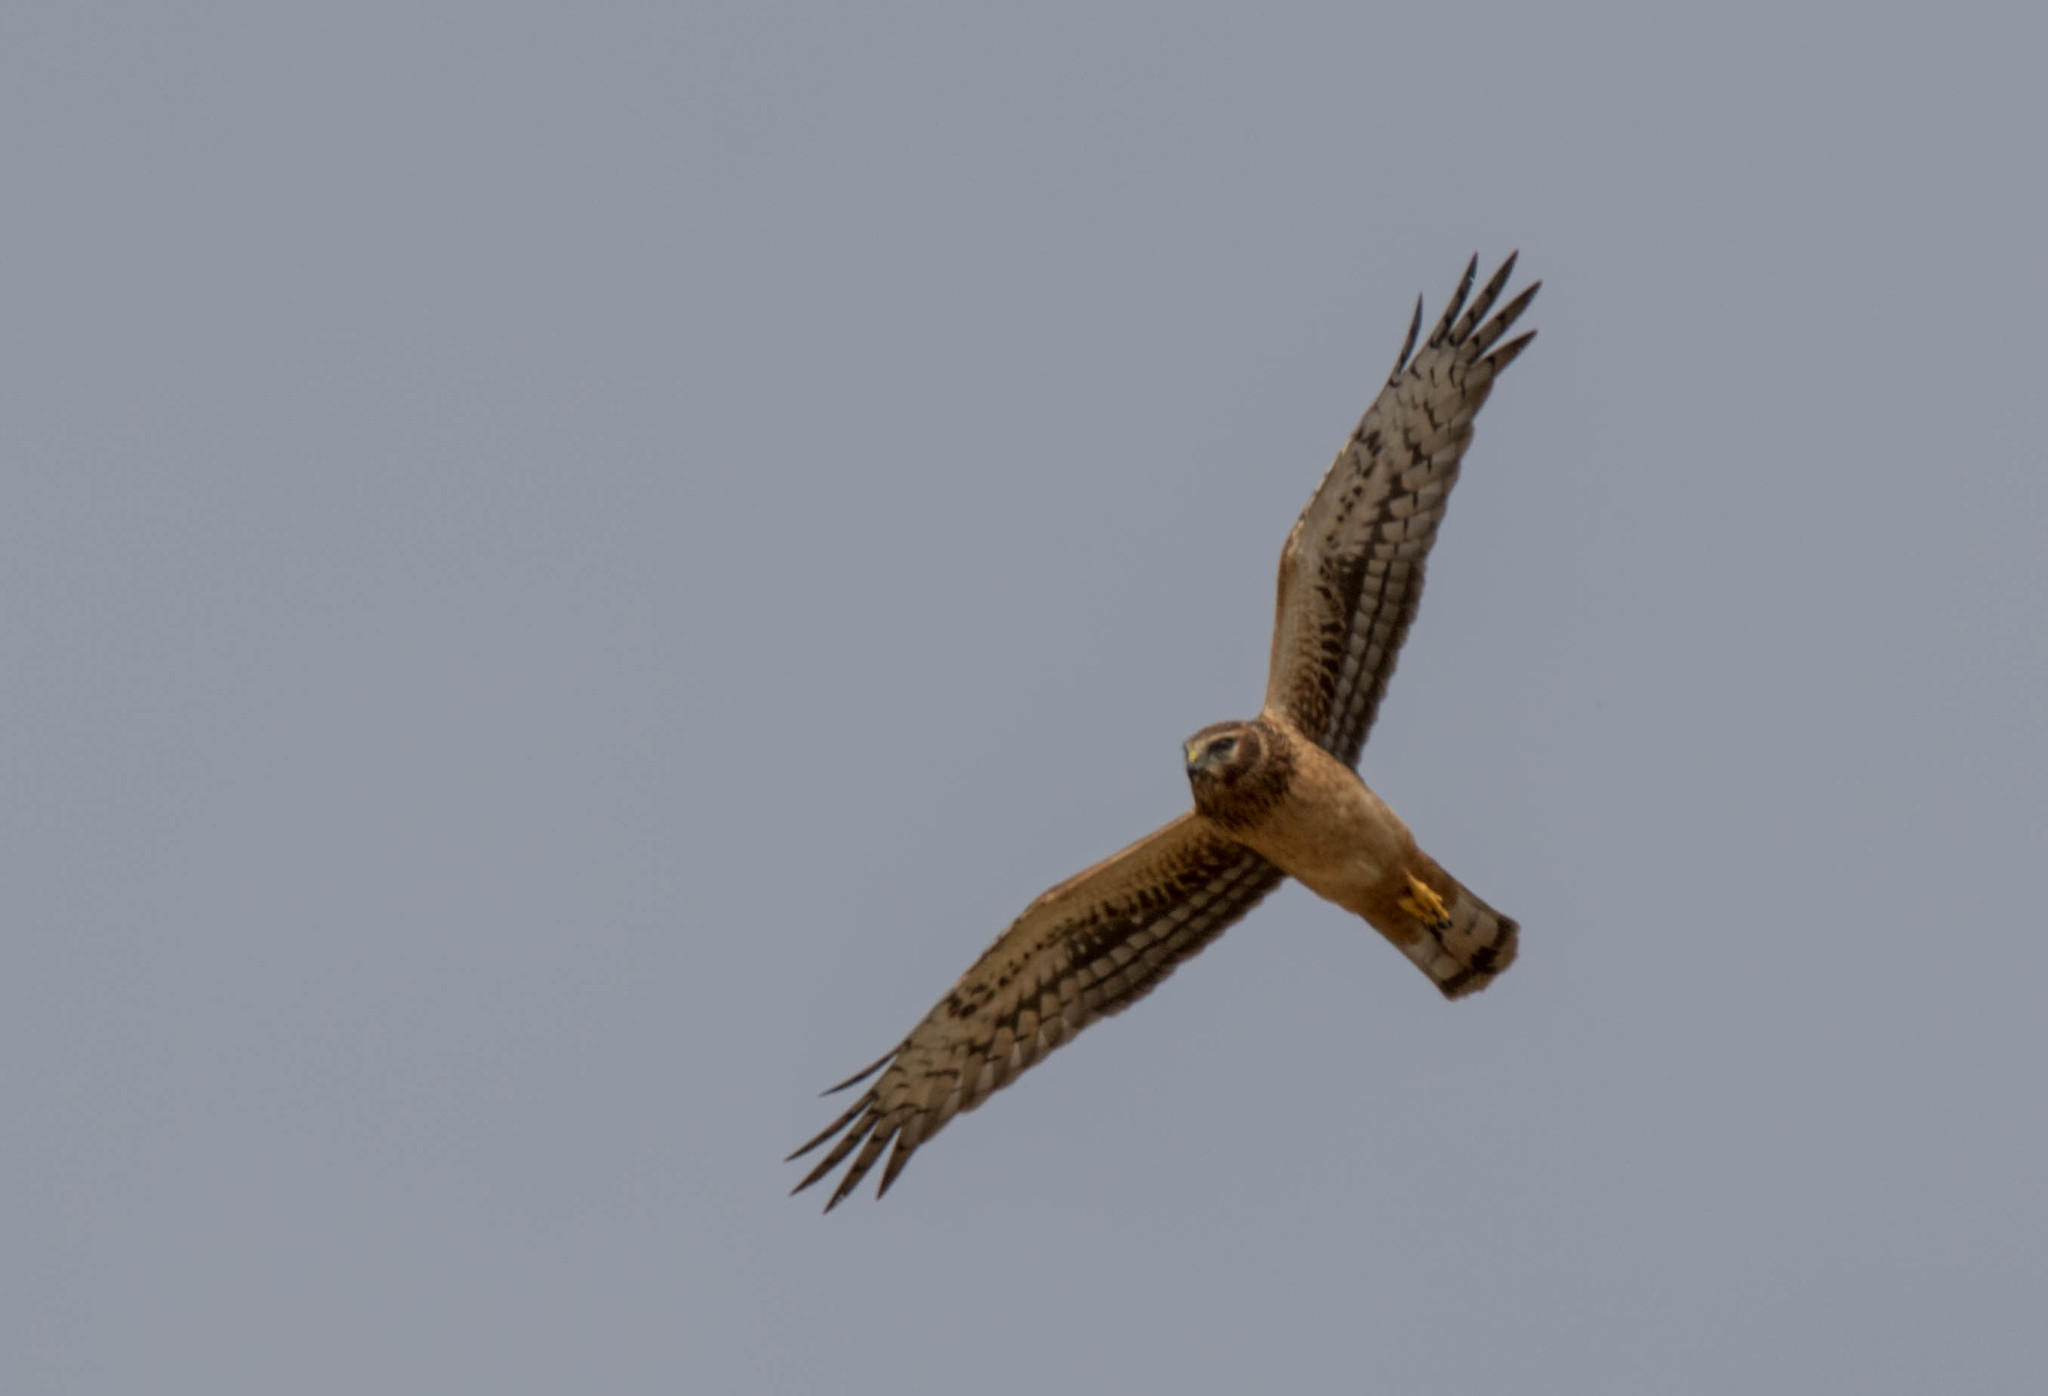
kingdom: Animalia
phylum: Chordata
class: Aves
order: Accipitriformes
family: Accipitridae
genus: Circus
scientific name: Circus cyaneus
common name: Hen harrier
